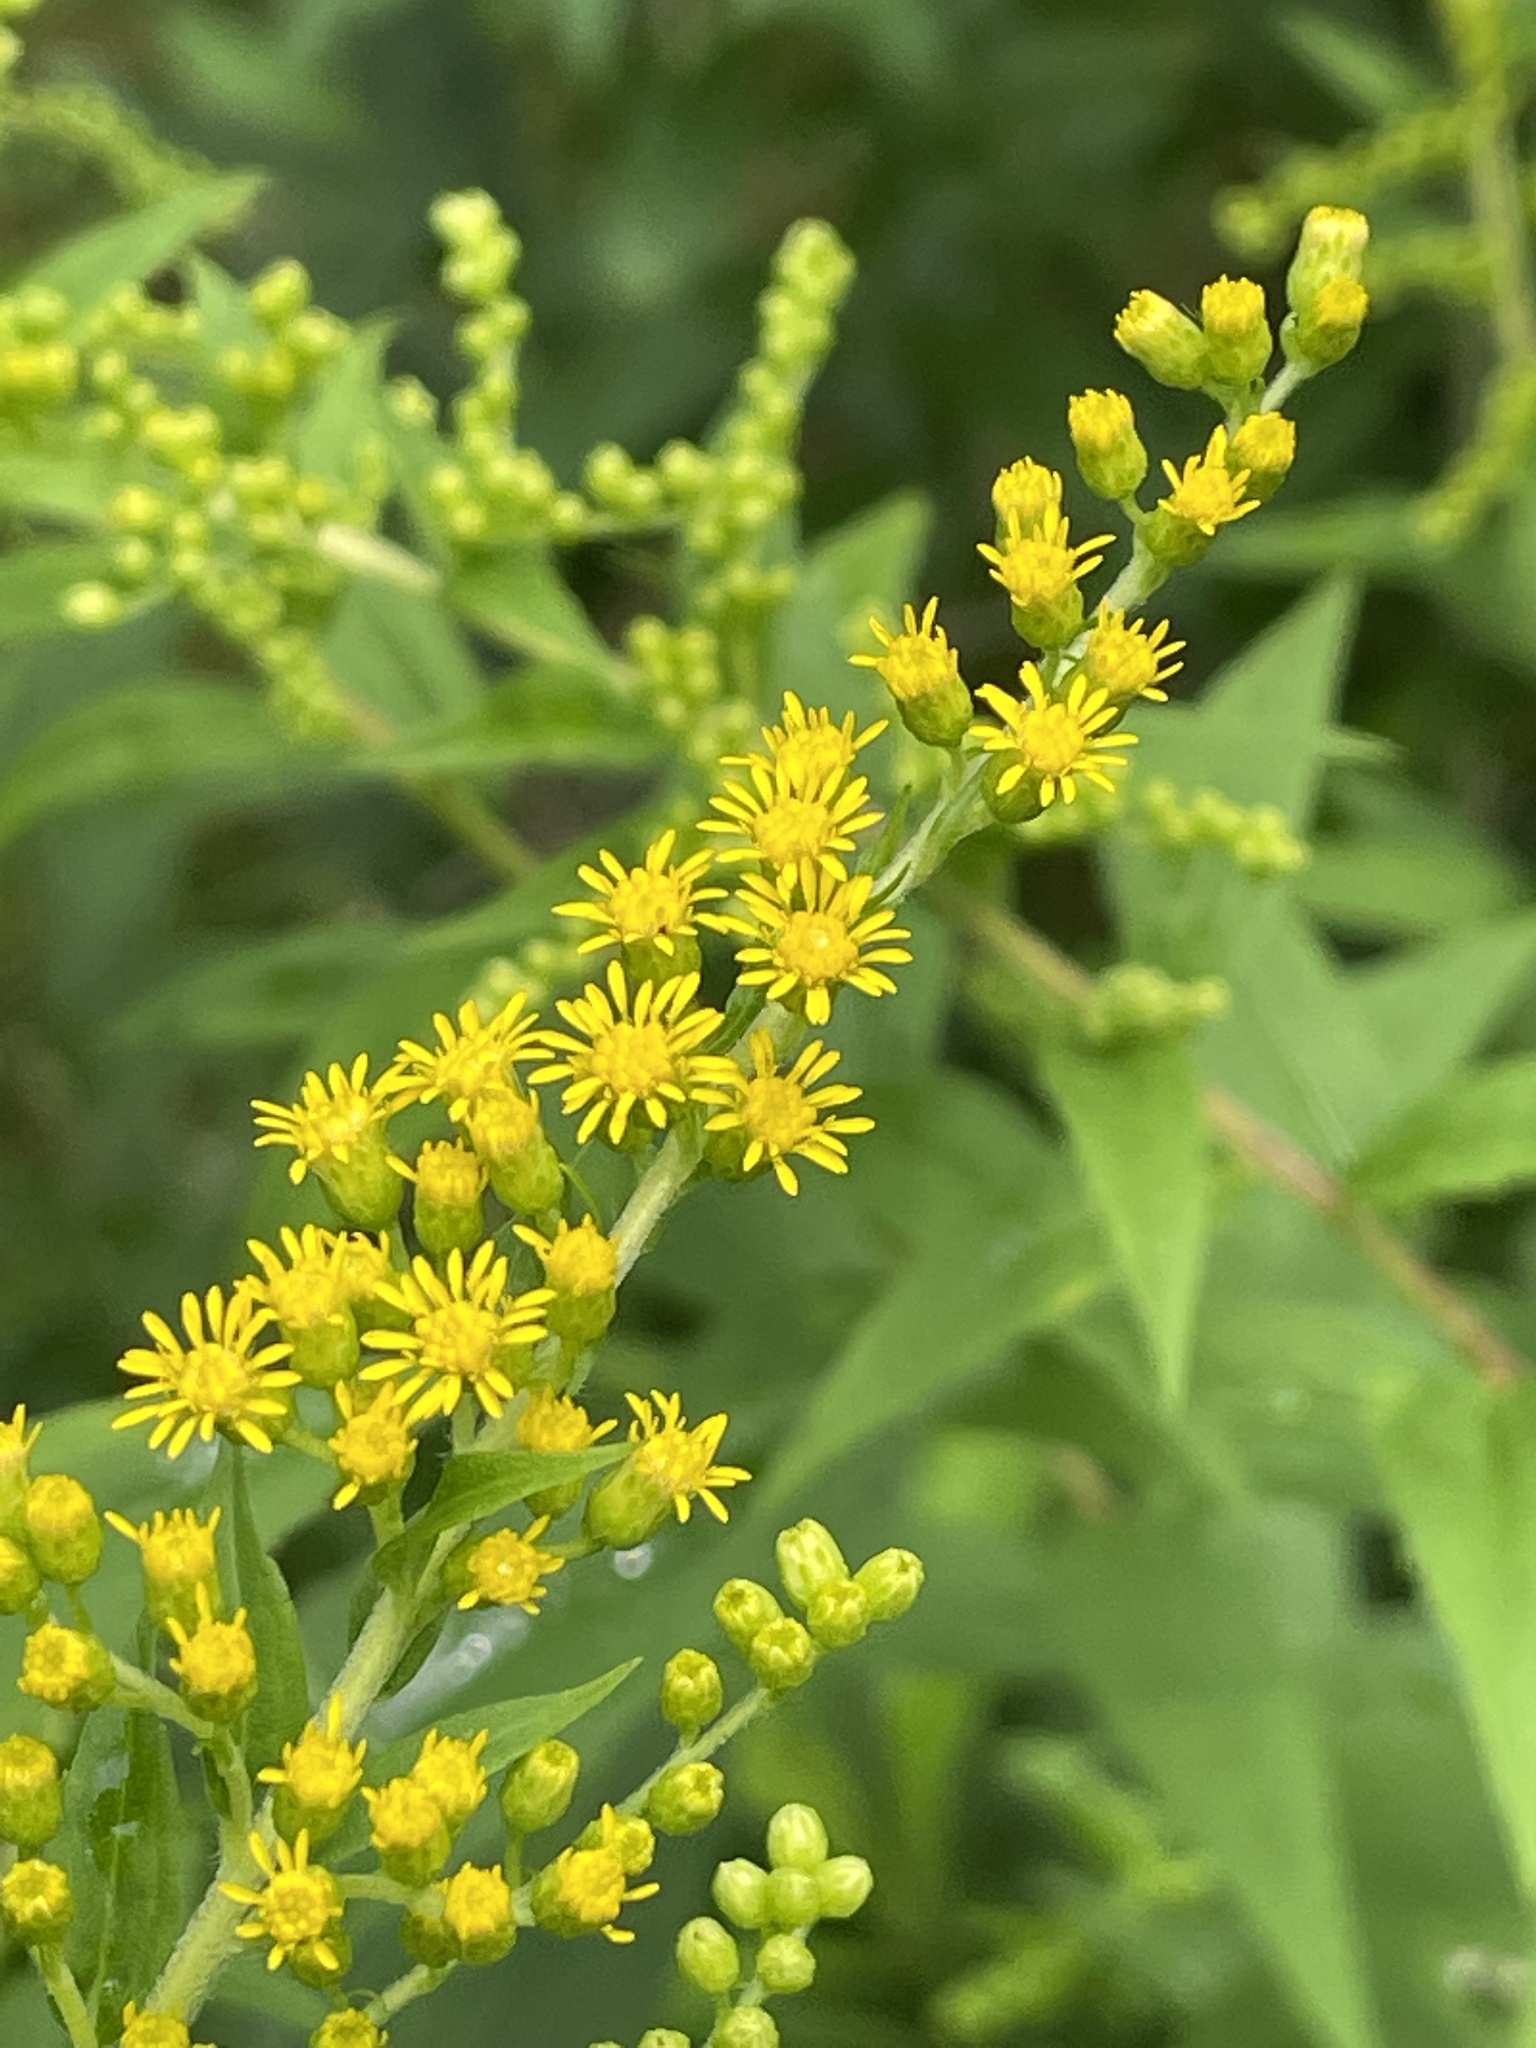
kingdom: Plantae
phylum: Tracheophyta
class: Magnoliopsida
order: Asterales
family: Asteraceae
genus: Solidago
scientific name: Solidago gigantea
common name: Giant goldenrod
